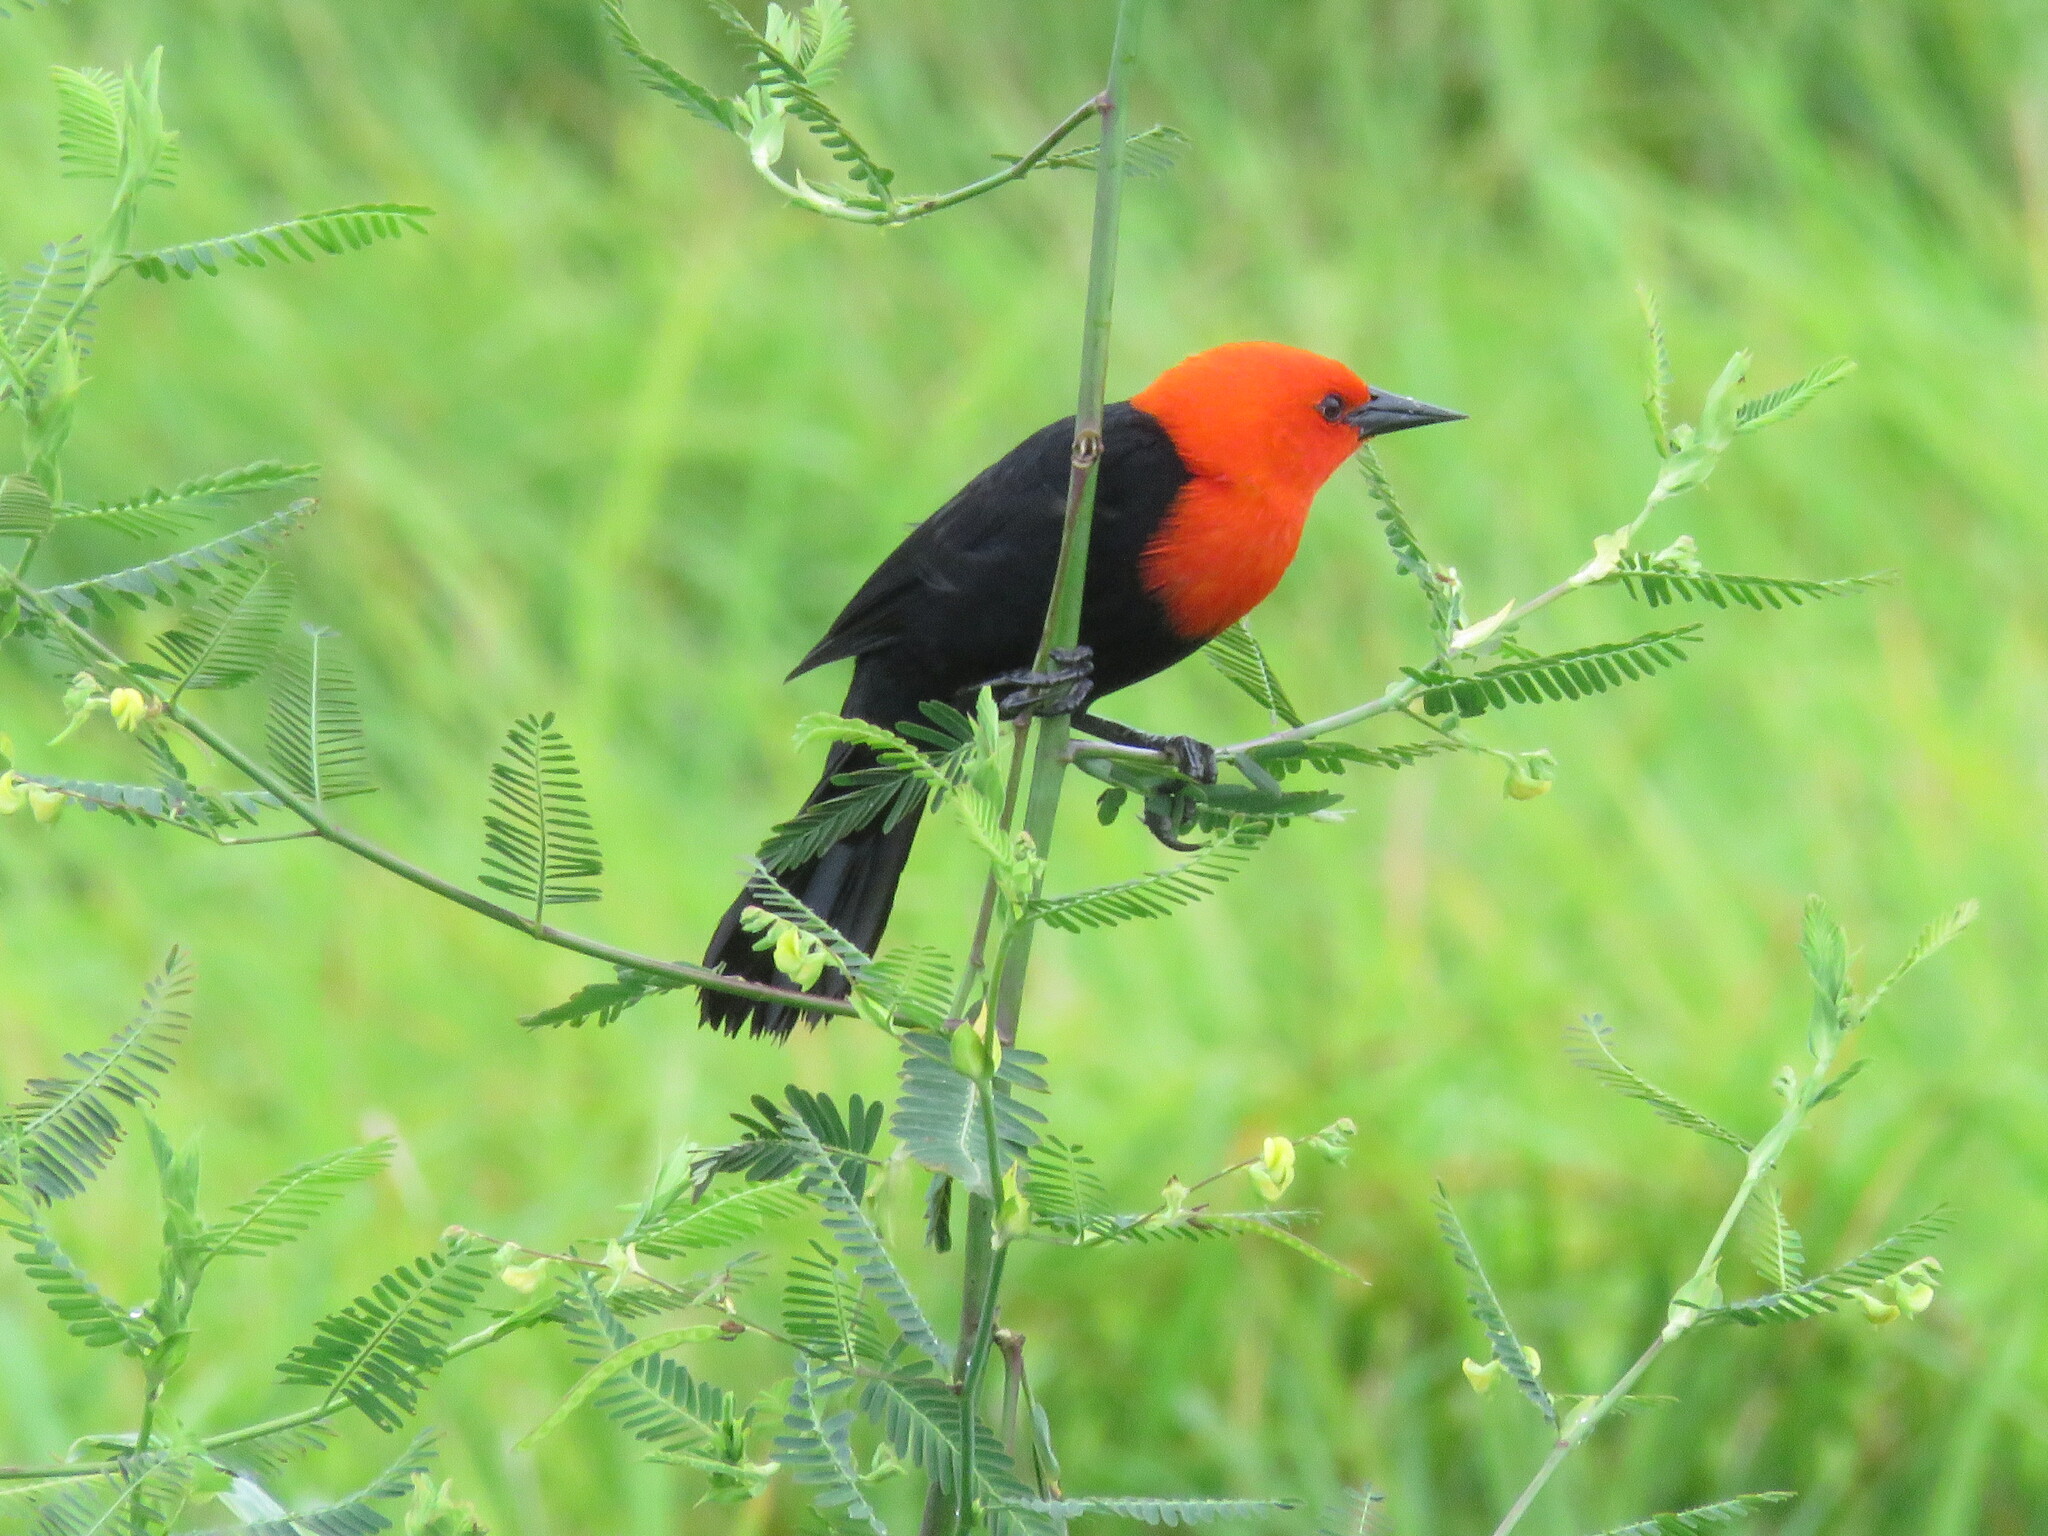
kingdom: Animalia
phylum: Chordata
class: Aves
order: Passeriformes
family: Icteridae
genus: Amblyramphus
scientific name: Amblyramphus holosericeus
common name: Scarlet-headed blackbird
